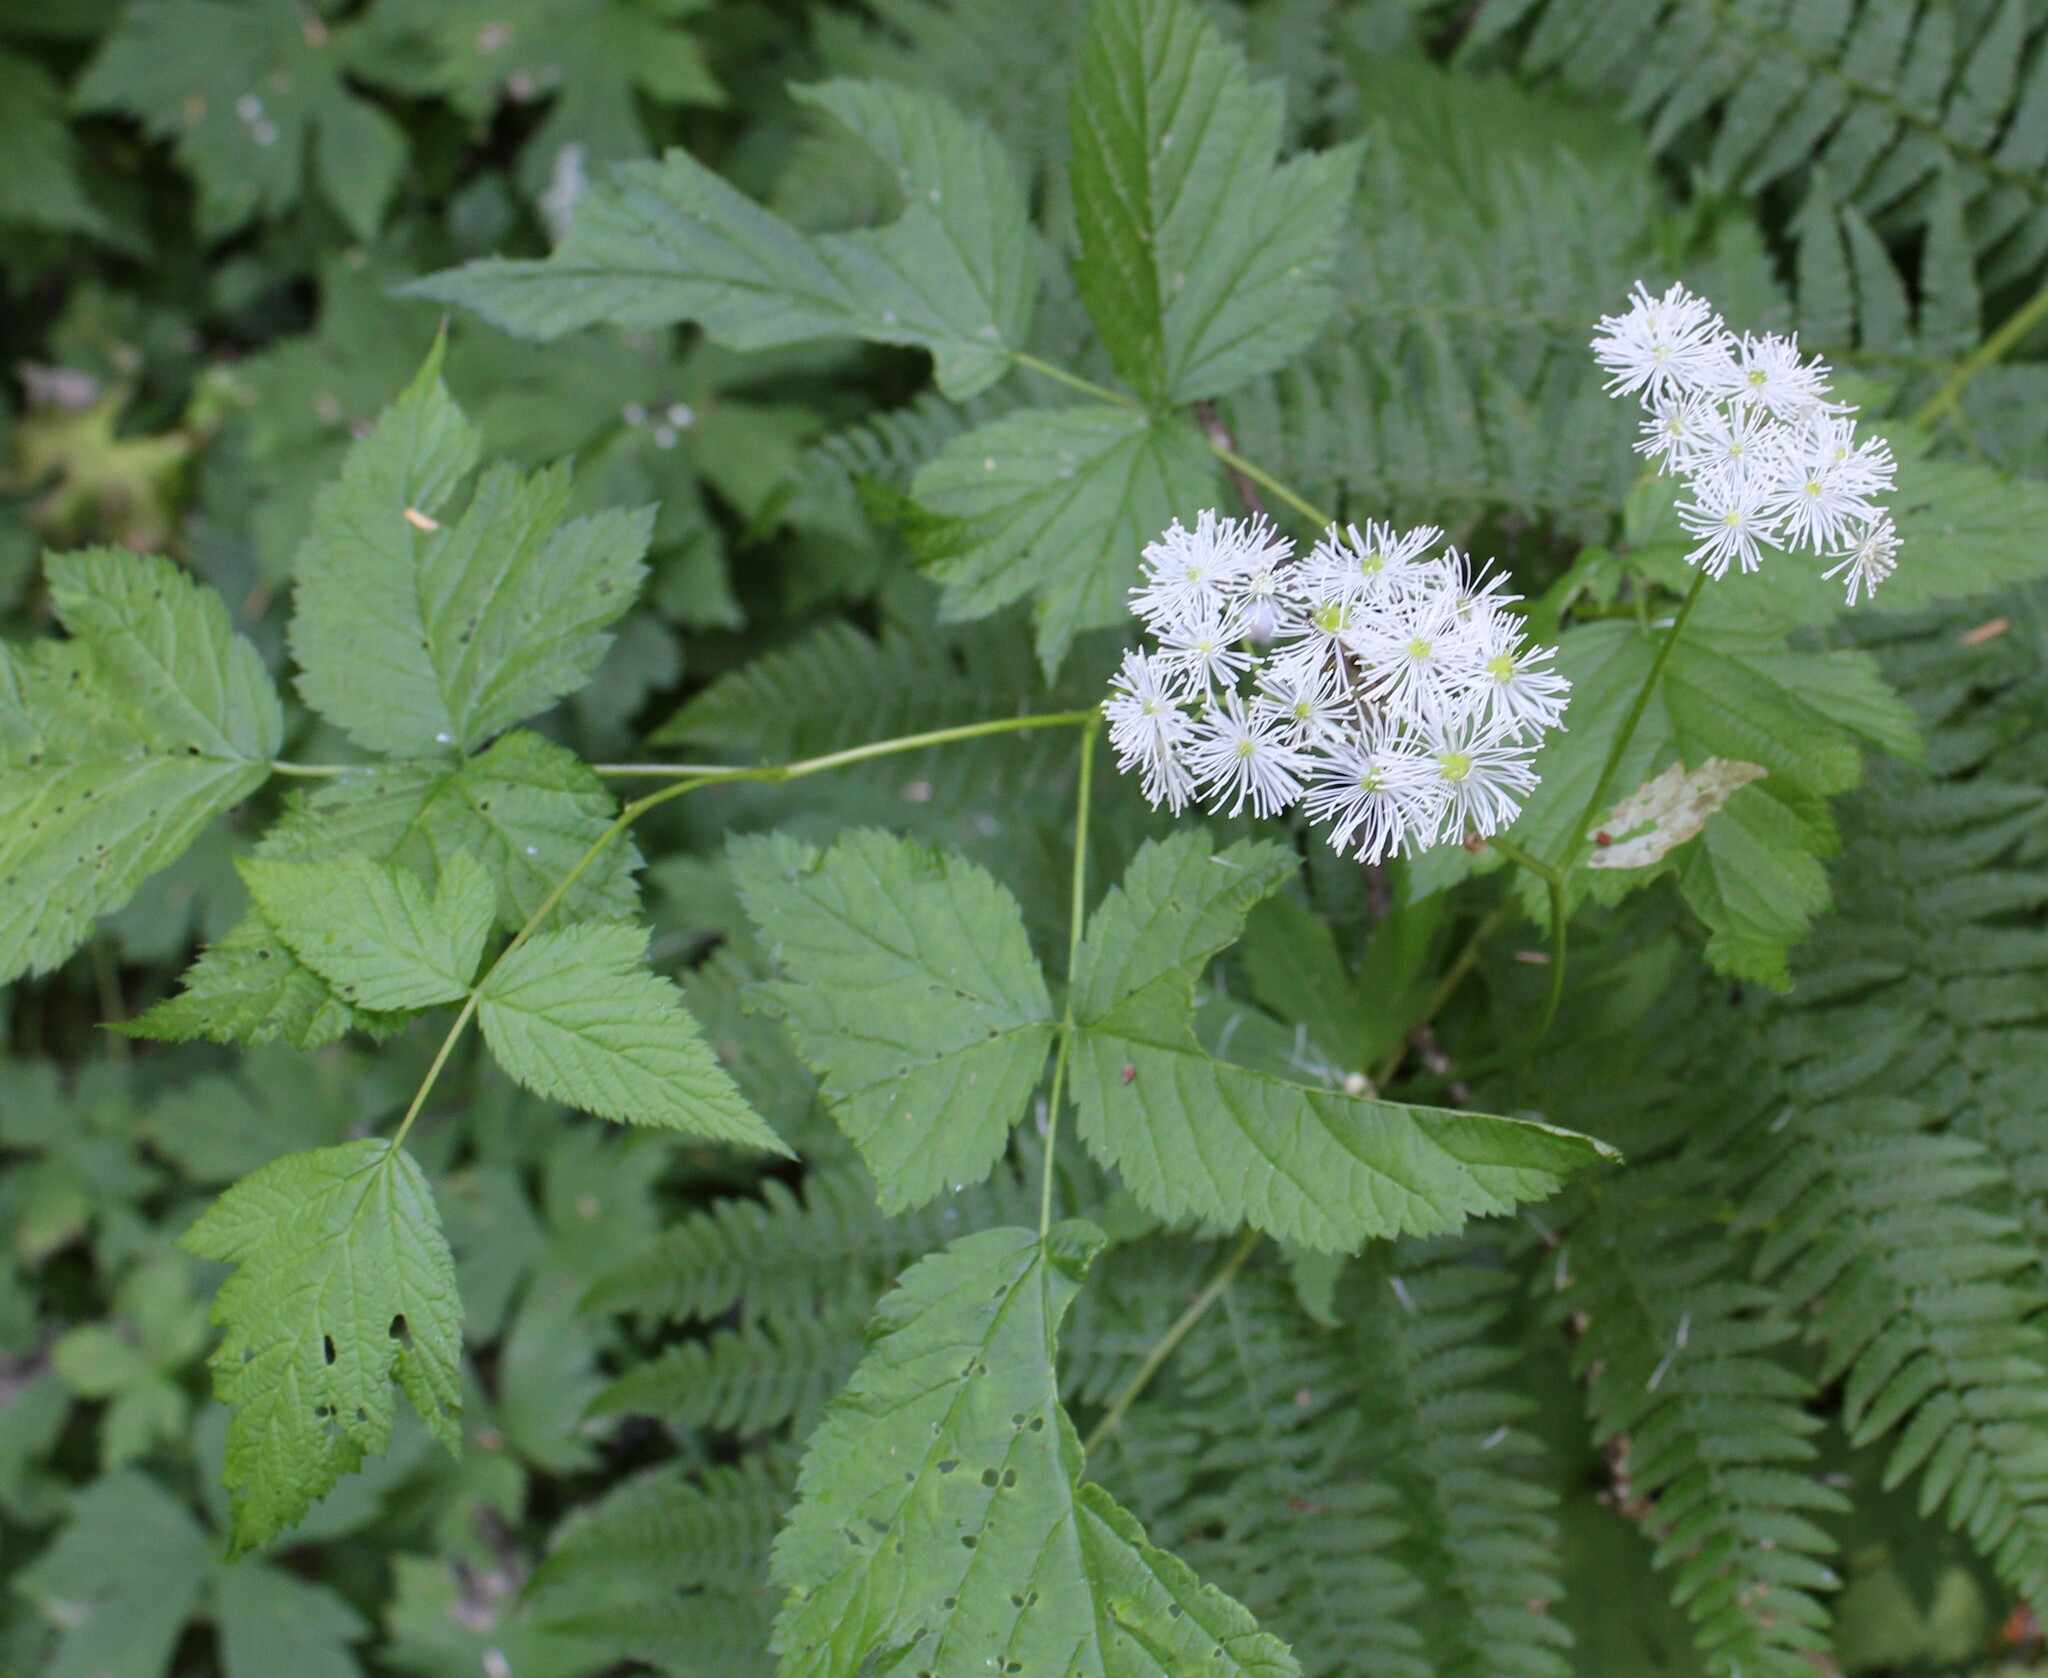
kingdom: Plantae
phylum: Tracheophyta
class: Magnoliopsida
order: Ranunculales
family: Ranunculaceae
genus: Trautvetteria
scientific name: Trautvetteria carolinensis
